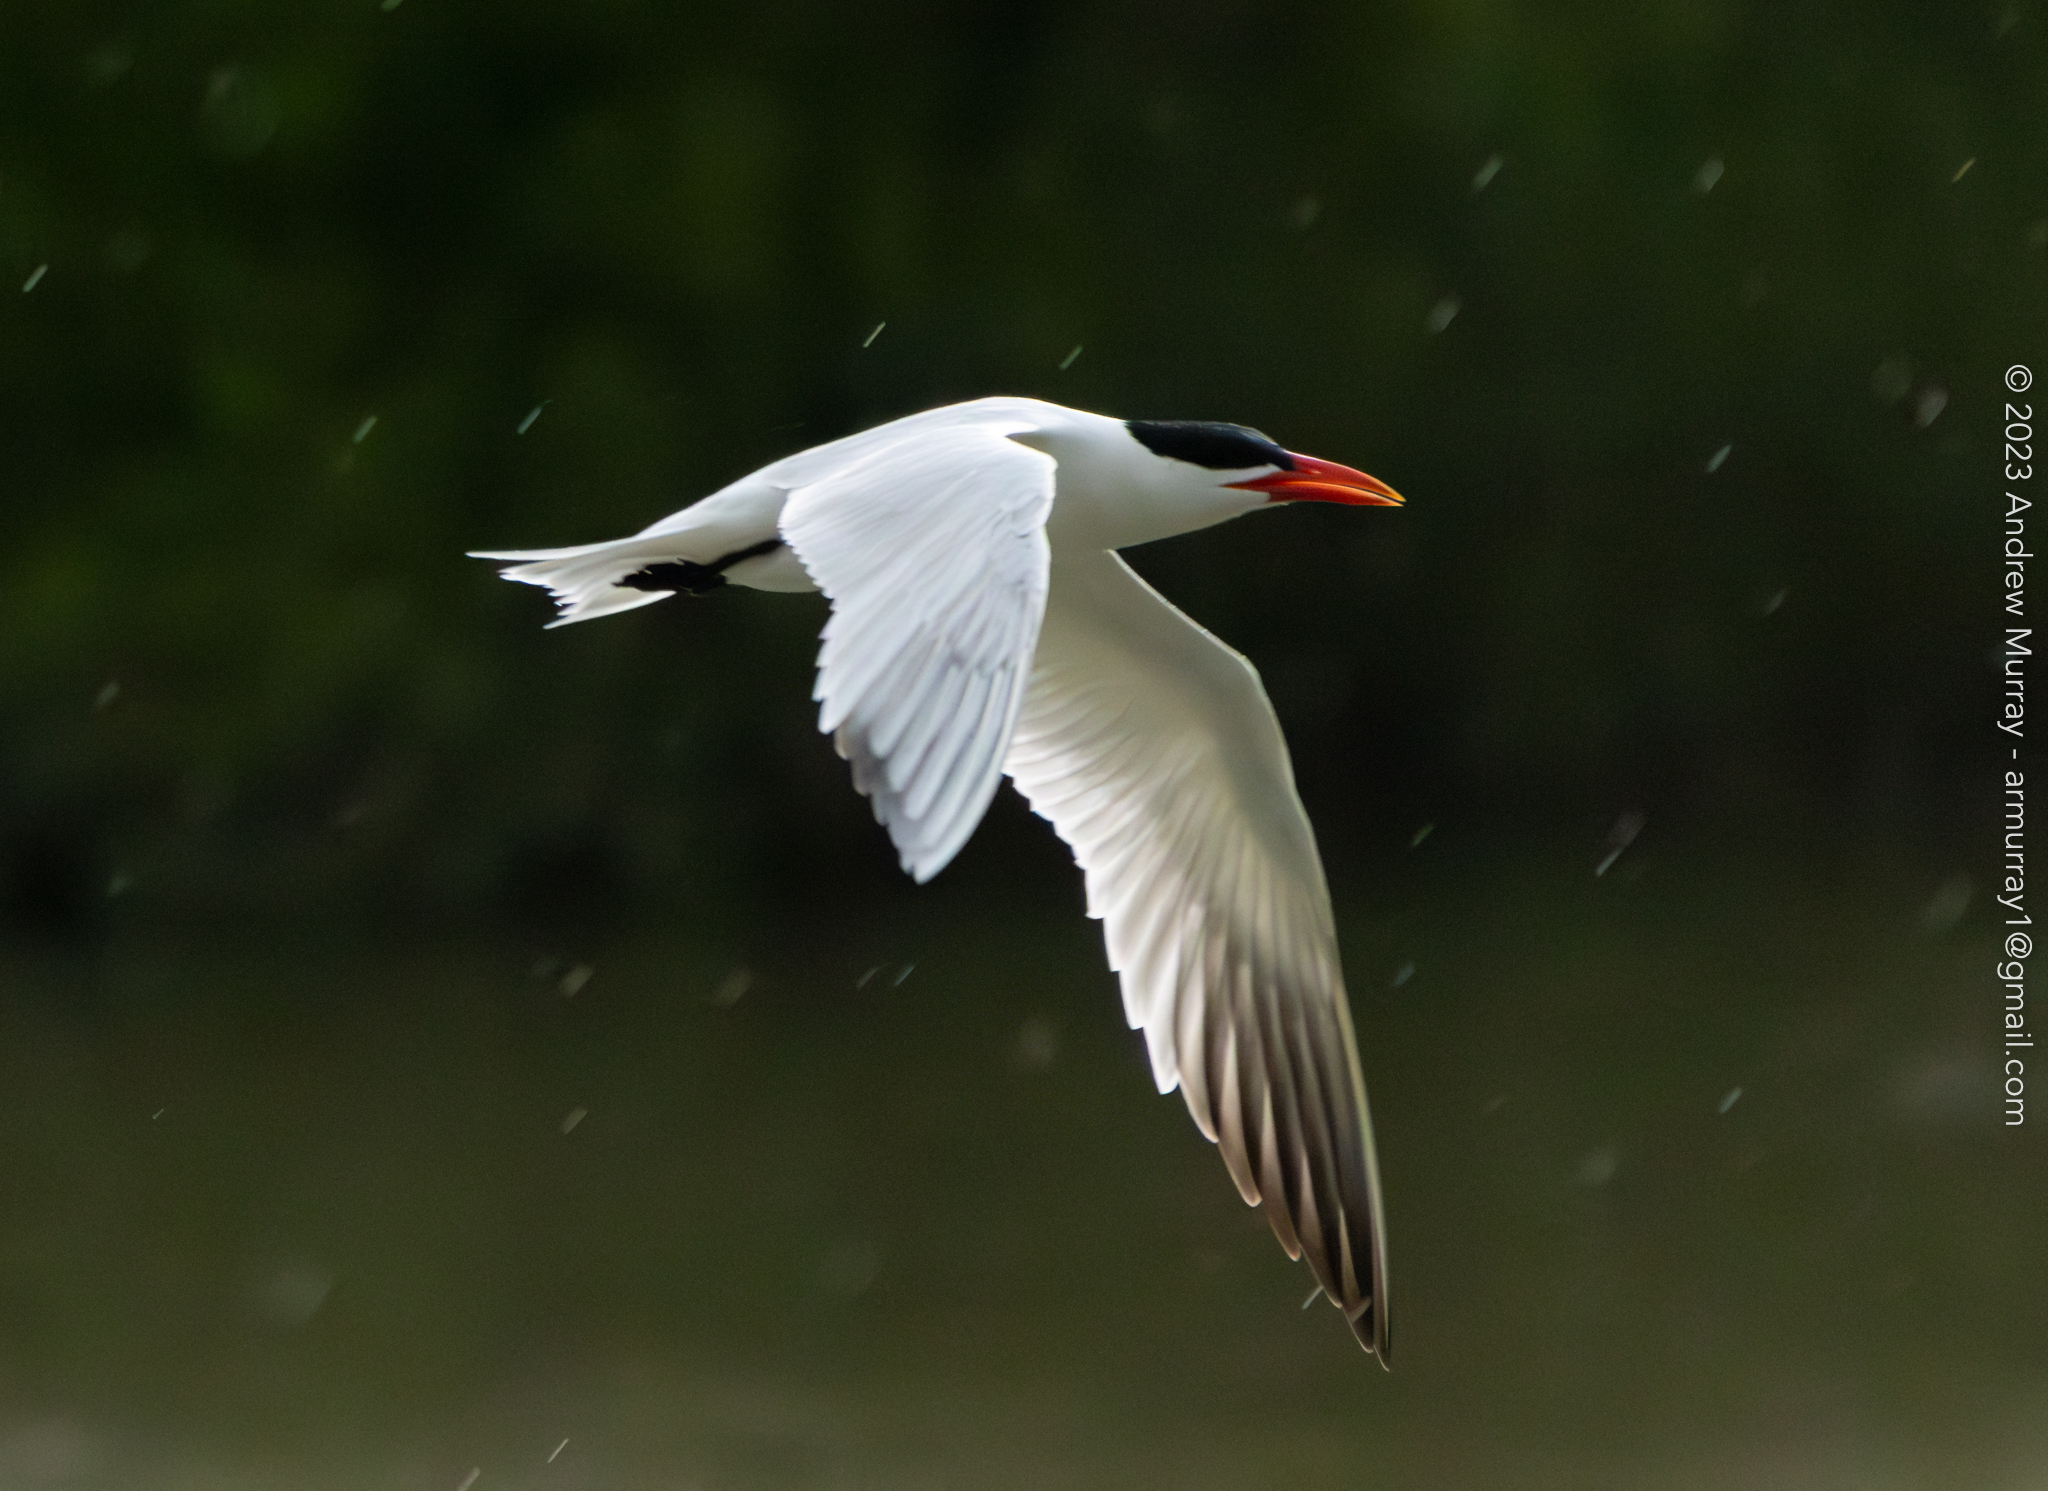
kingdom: Animalia
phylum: Chordata
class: Aves
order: Charadriiformes
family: Laridae
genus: Hydroprogne
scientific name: Hydroprogne caspia
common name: Caspian tern
